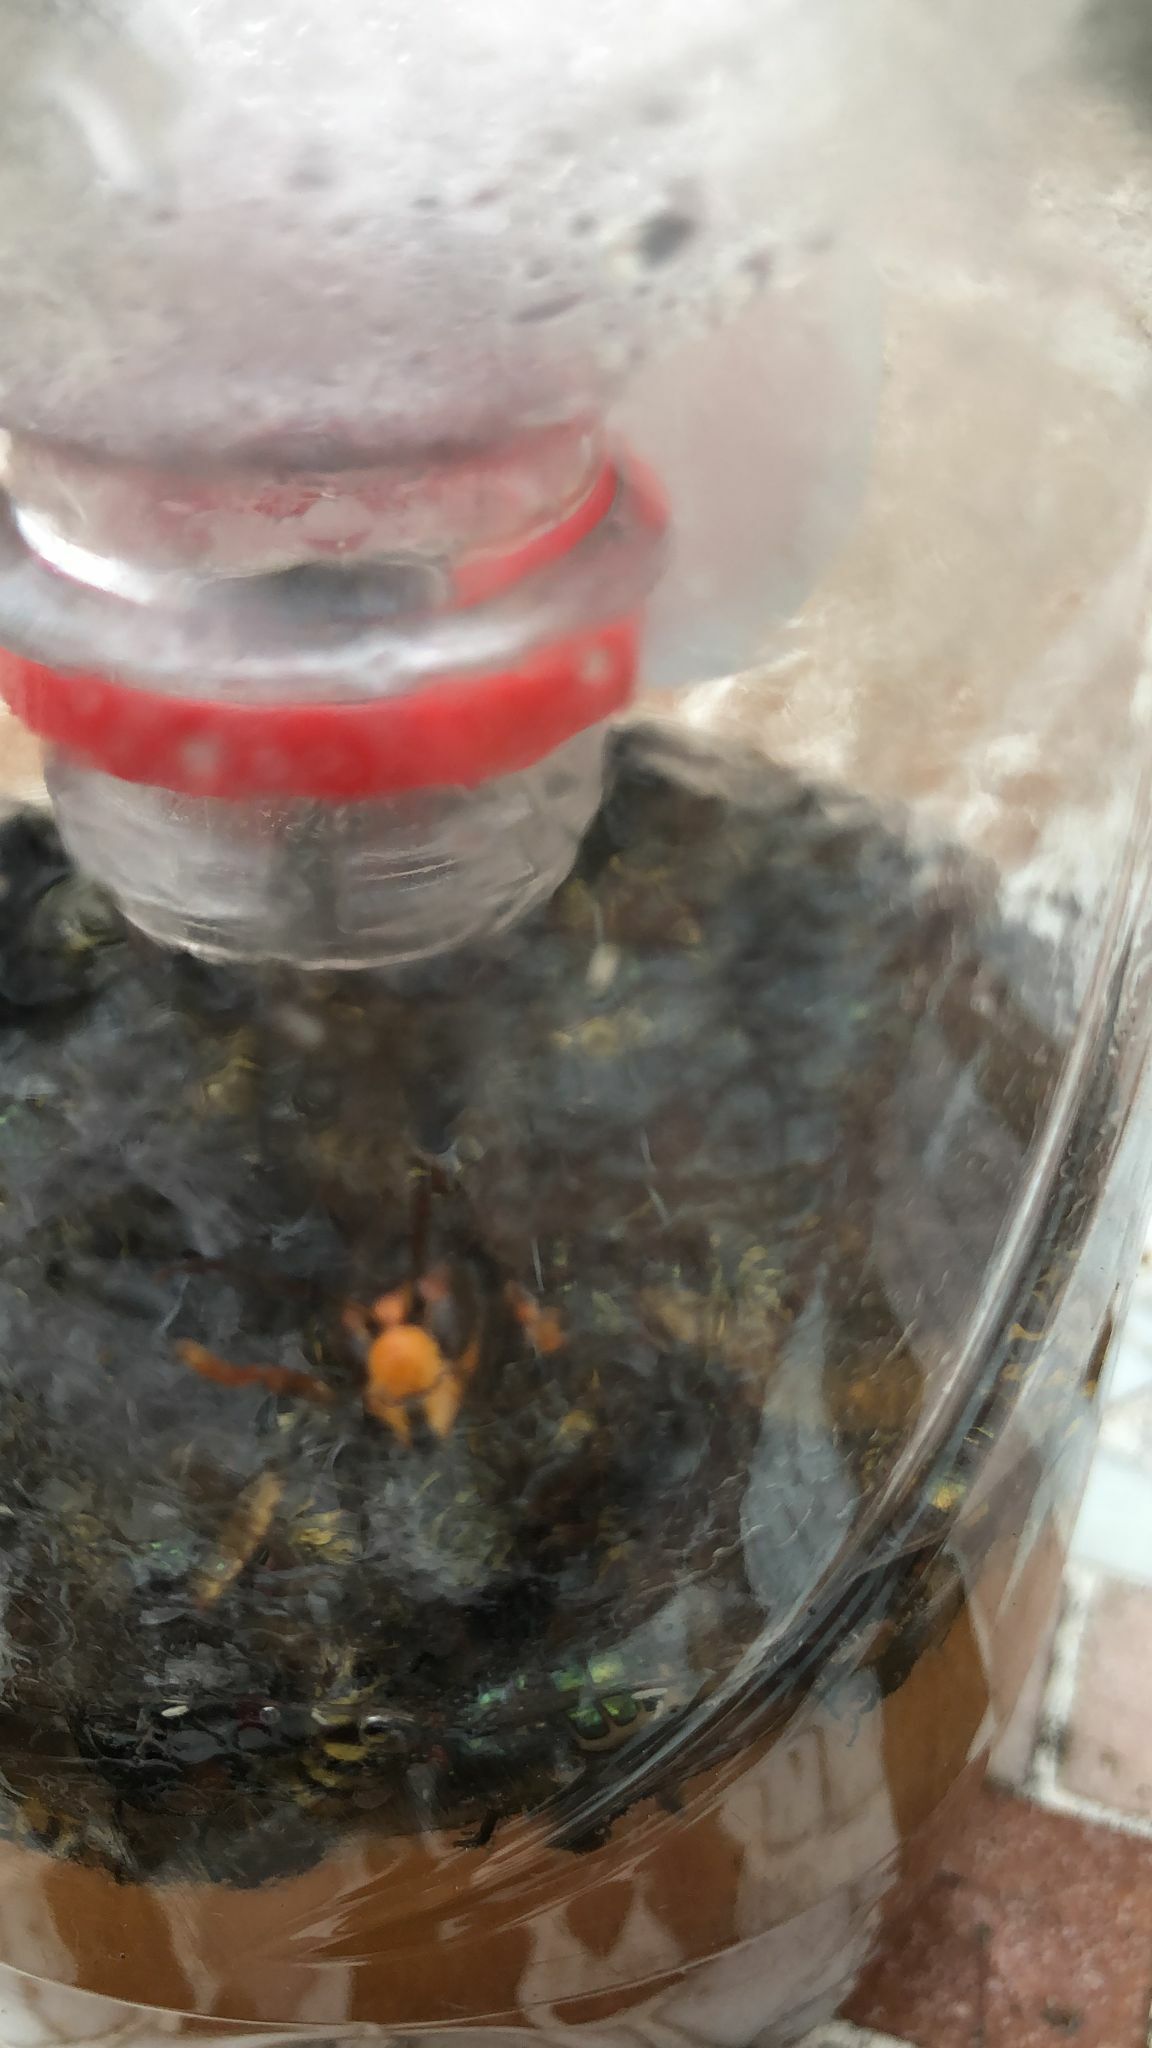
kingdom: Animalia
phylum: Arthropoda
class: Insecta
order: Hymenoptera
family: Vespidae
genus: Vespa
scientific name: Vespa velutina
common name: Asian hornet
